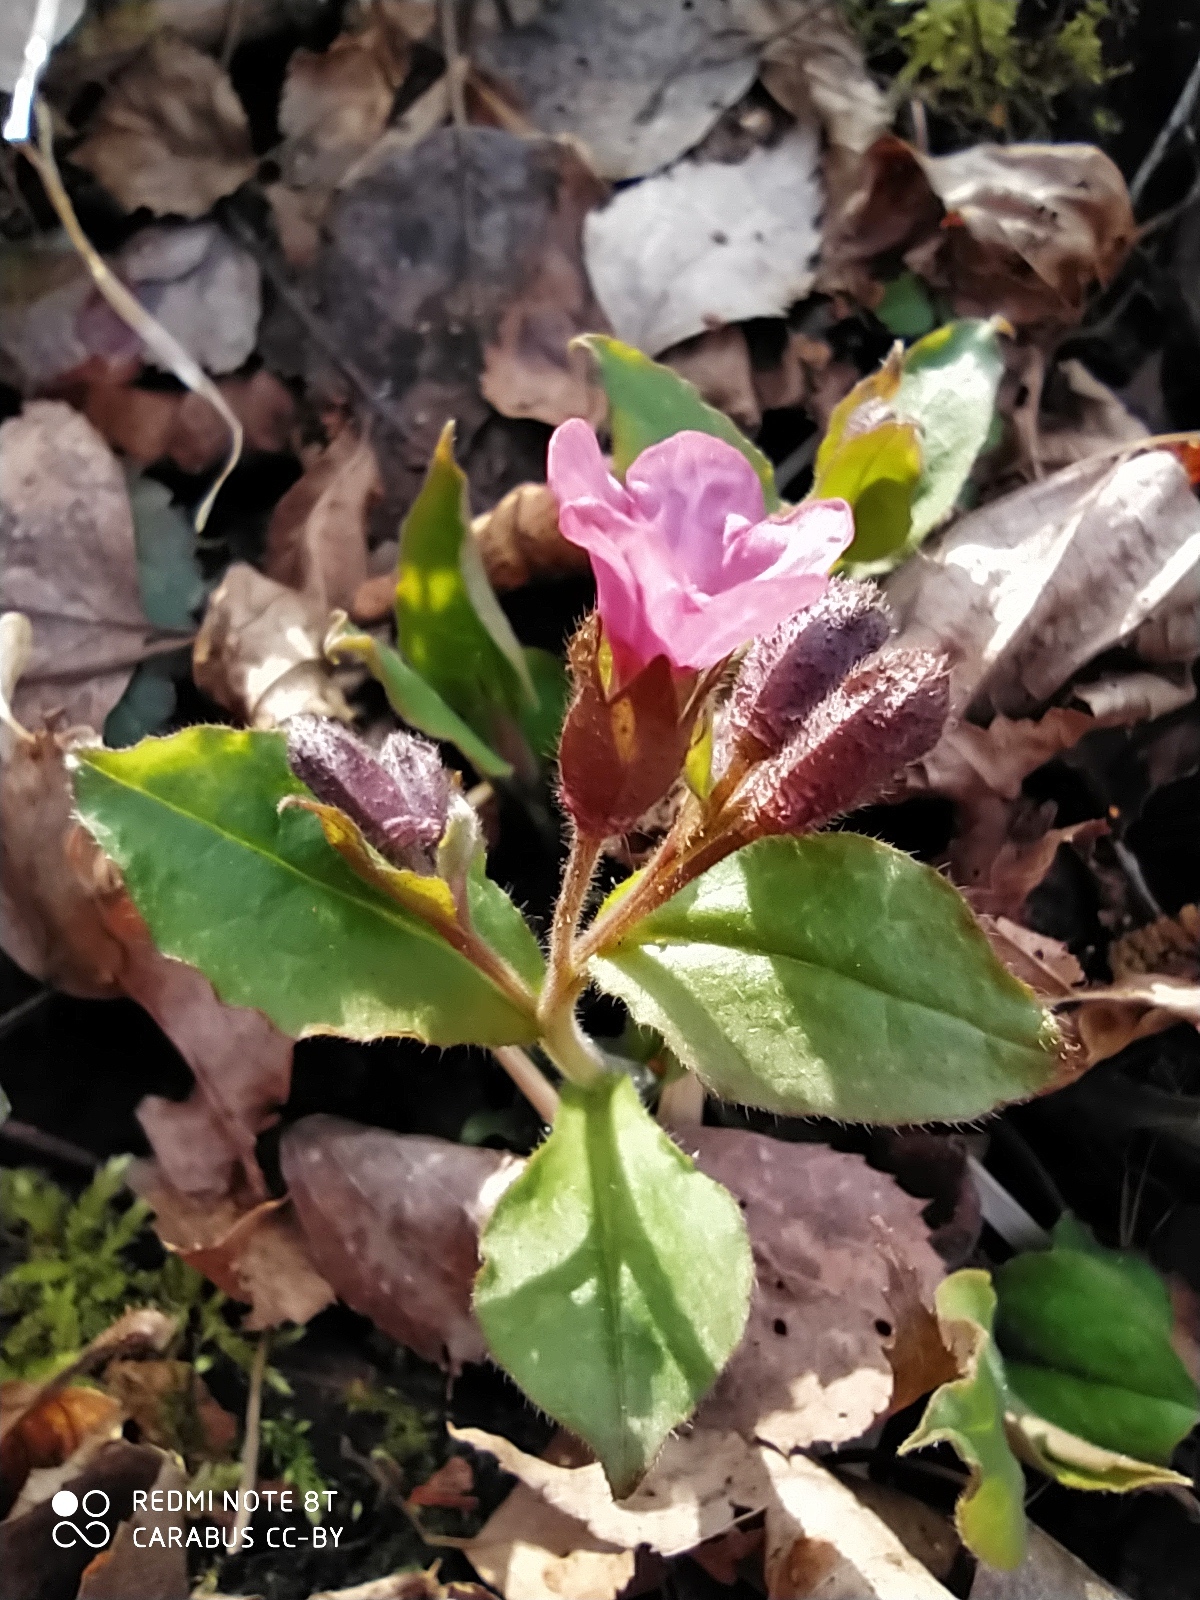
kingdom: Plantae
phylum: Tracheophyta
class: Magnoliopsida
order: Boraginales
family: Boraginaceae
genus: Pulmonaria
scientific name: Pulmonaria obscura
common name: Suffolk lungwort
